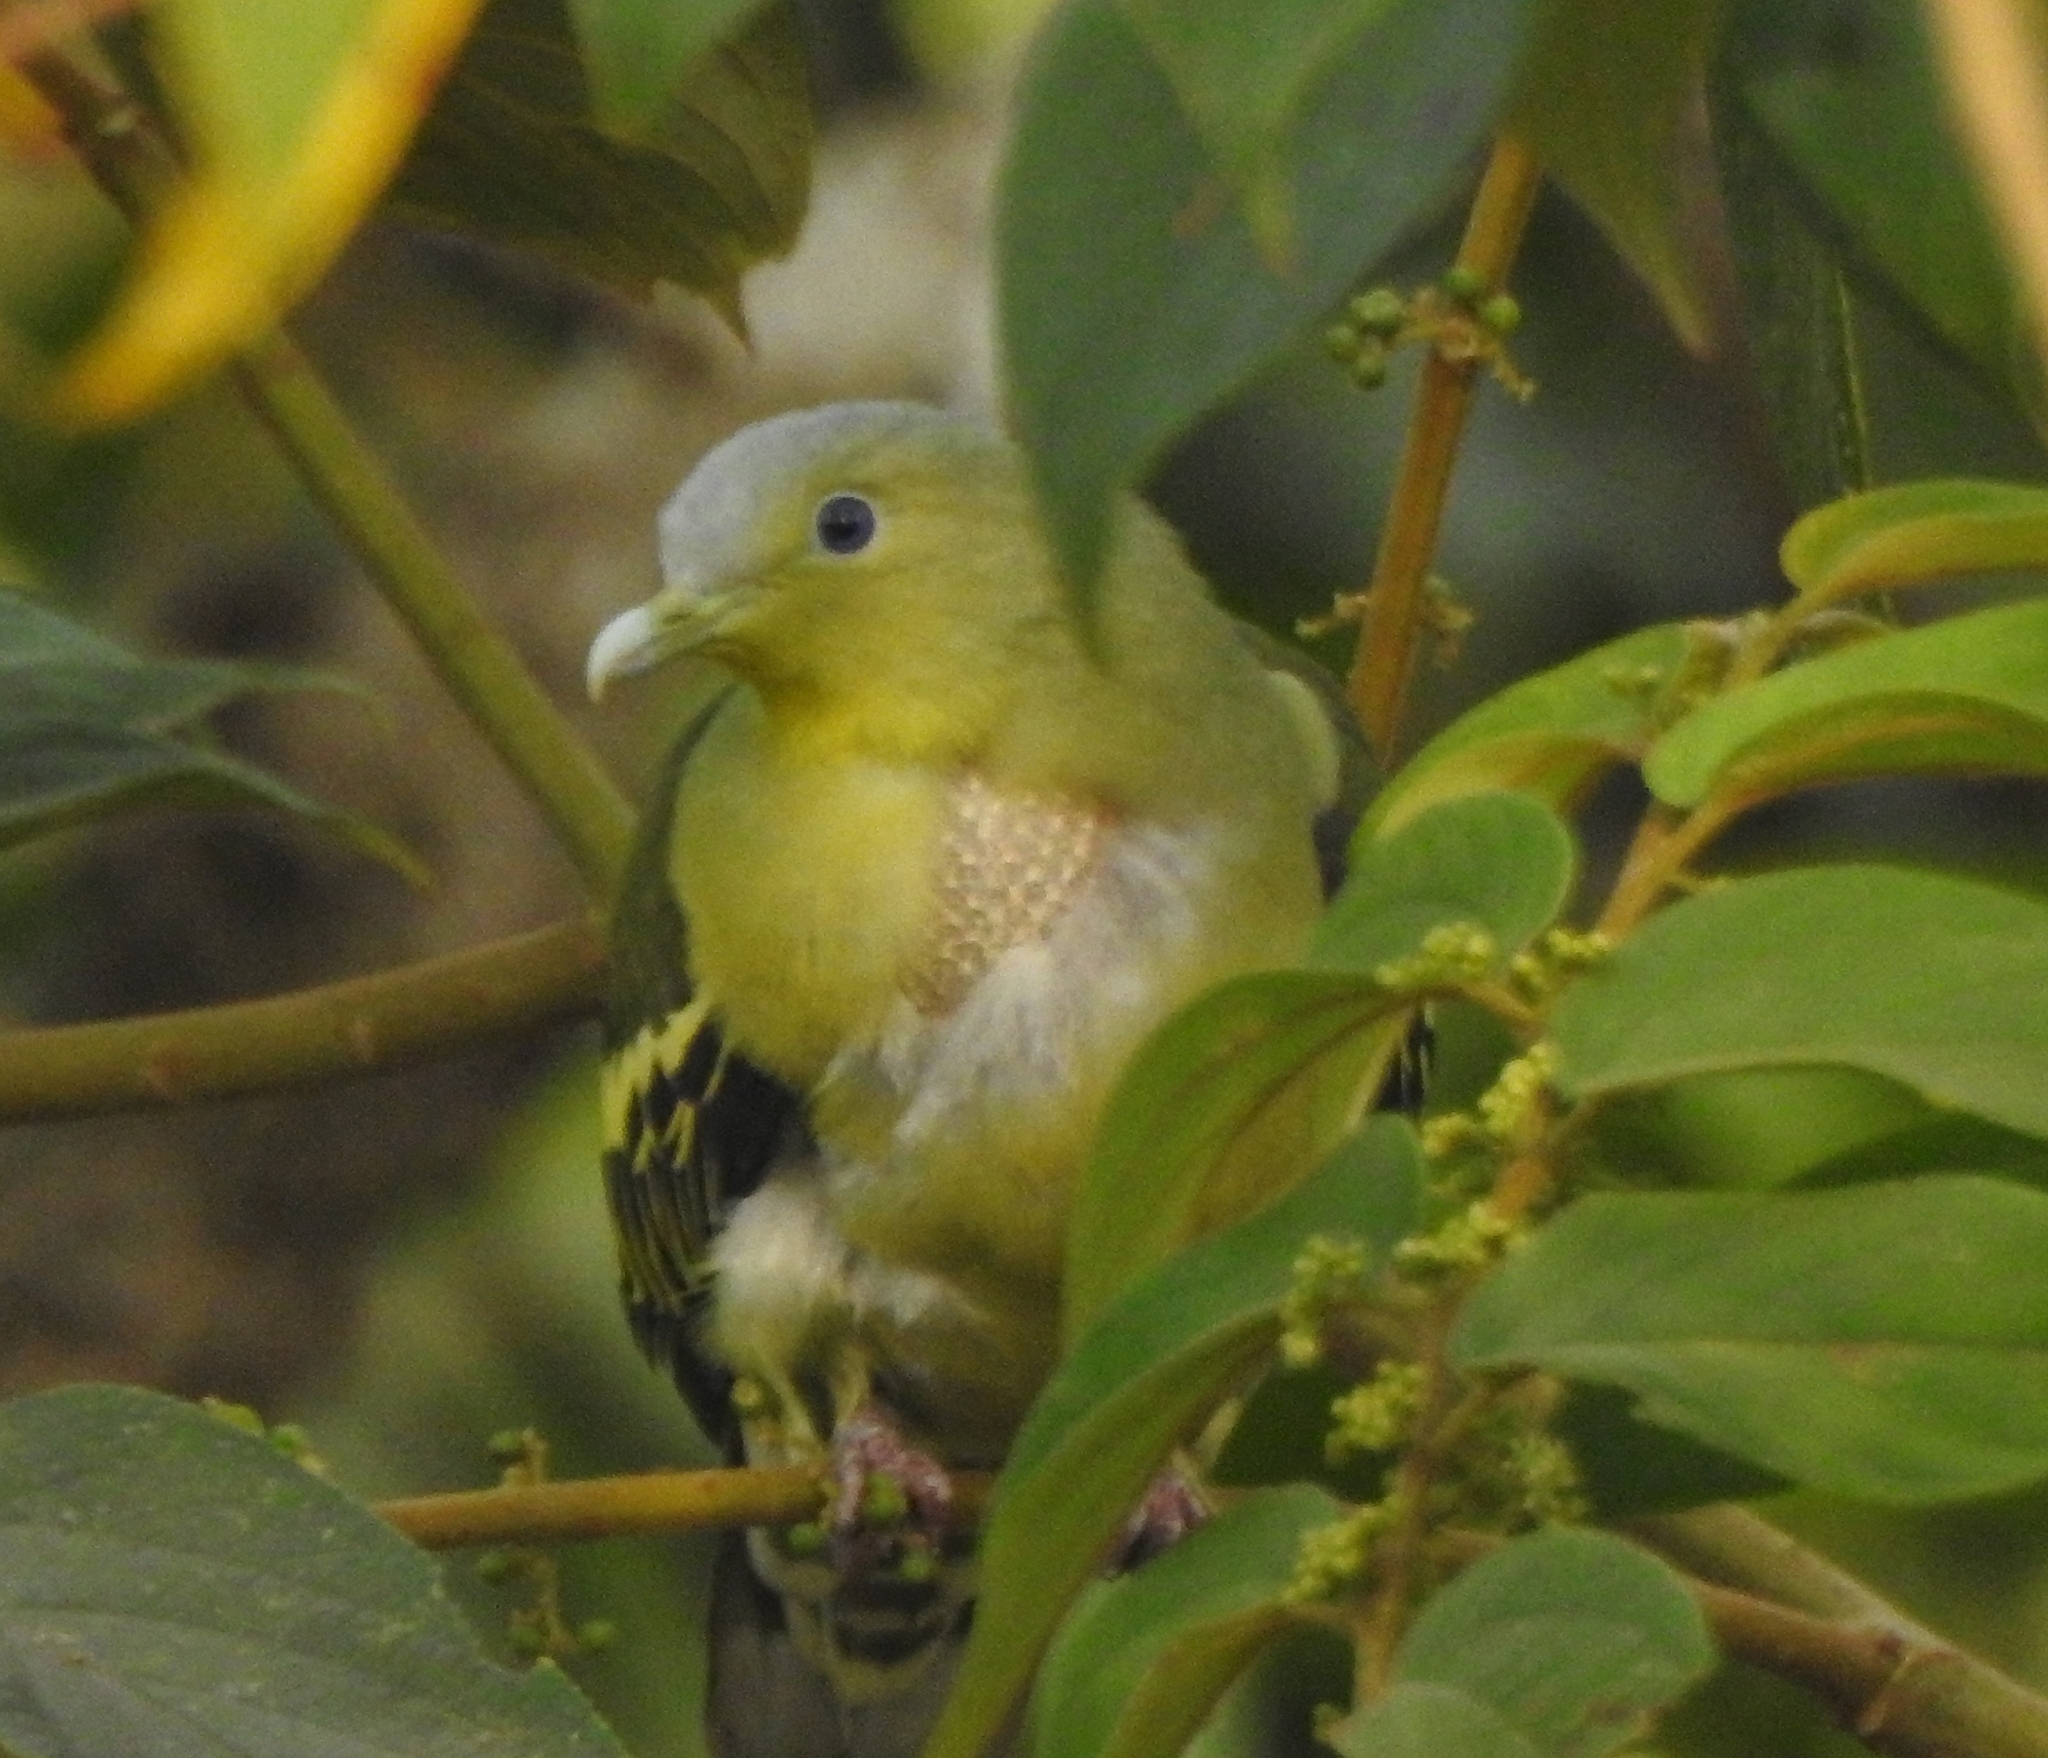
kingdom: Animalia
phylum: Chordata
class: Aves
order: Columbiformes
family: Columbidae
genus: Treron
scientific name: Treron affinis
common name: Grey-fronted green pigeon
